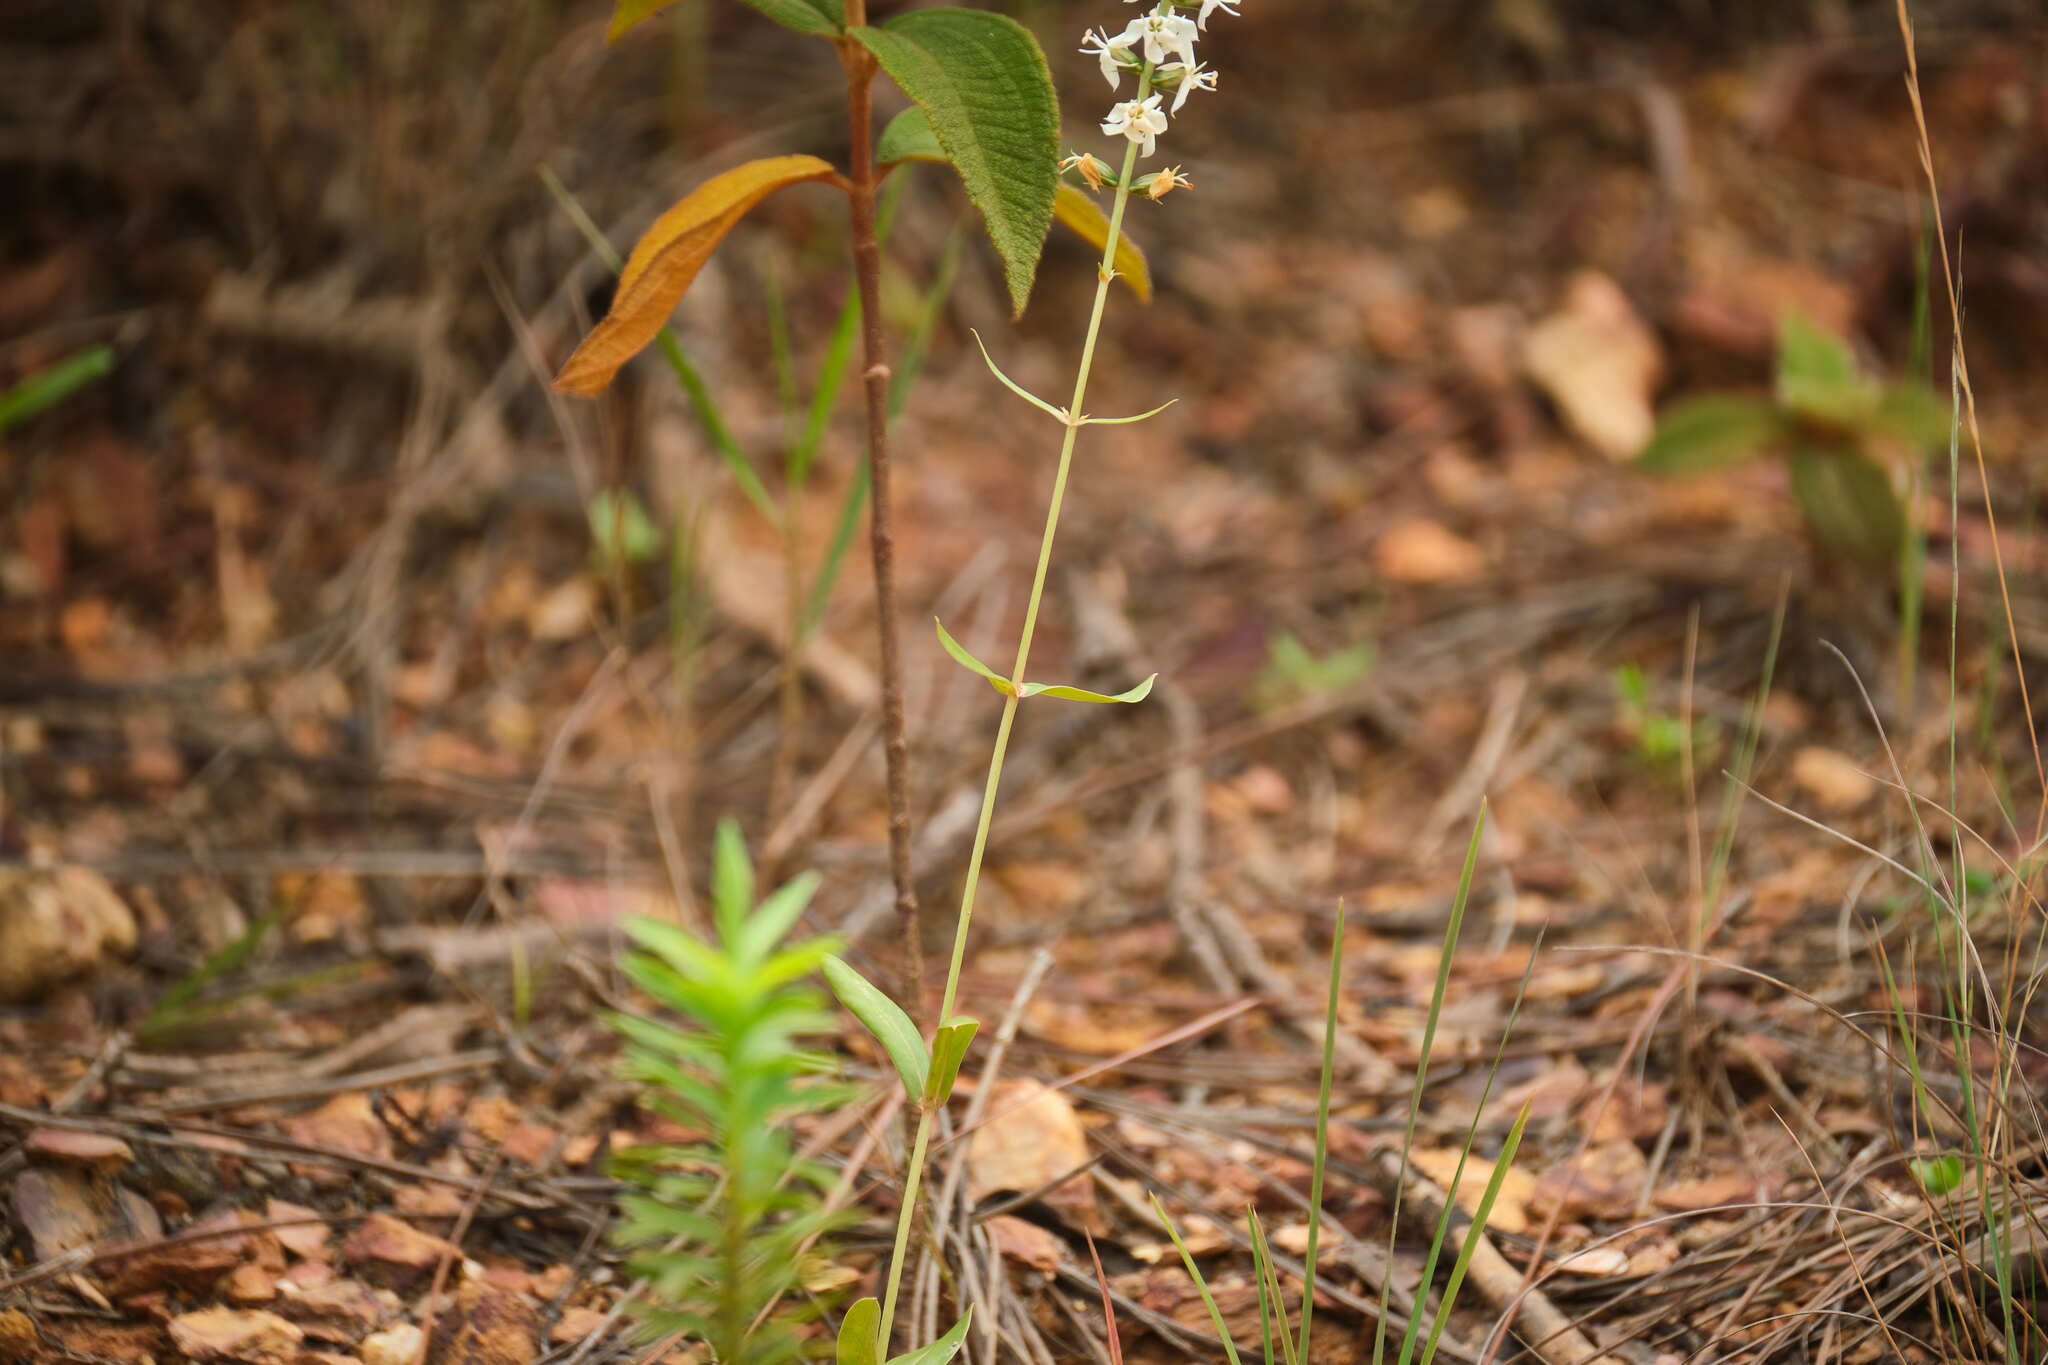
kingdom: Plantae
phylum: Tracheophyta
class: Magnoliopsida
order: Gentianales
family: Gentianaceae
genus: Coutoubea
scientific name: Coutoubea spicata
